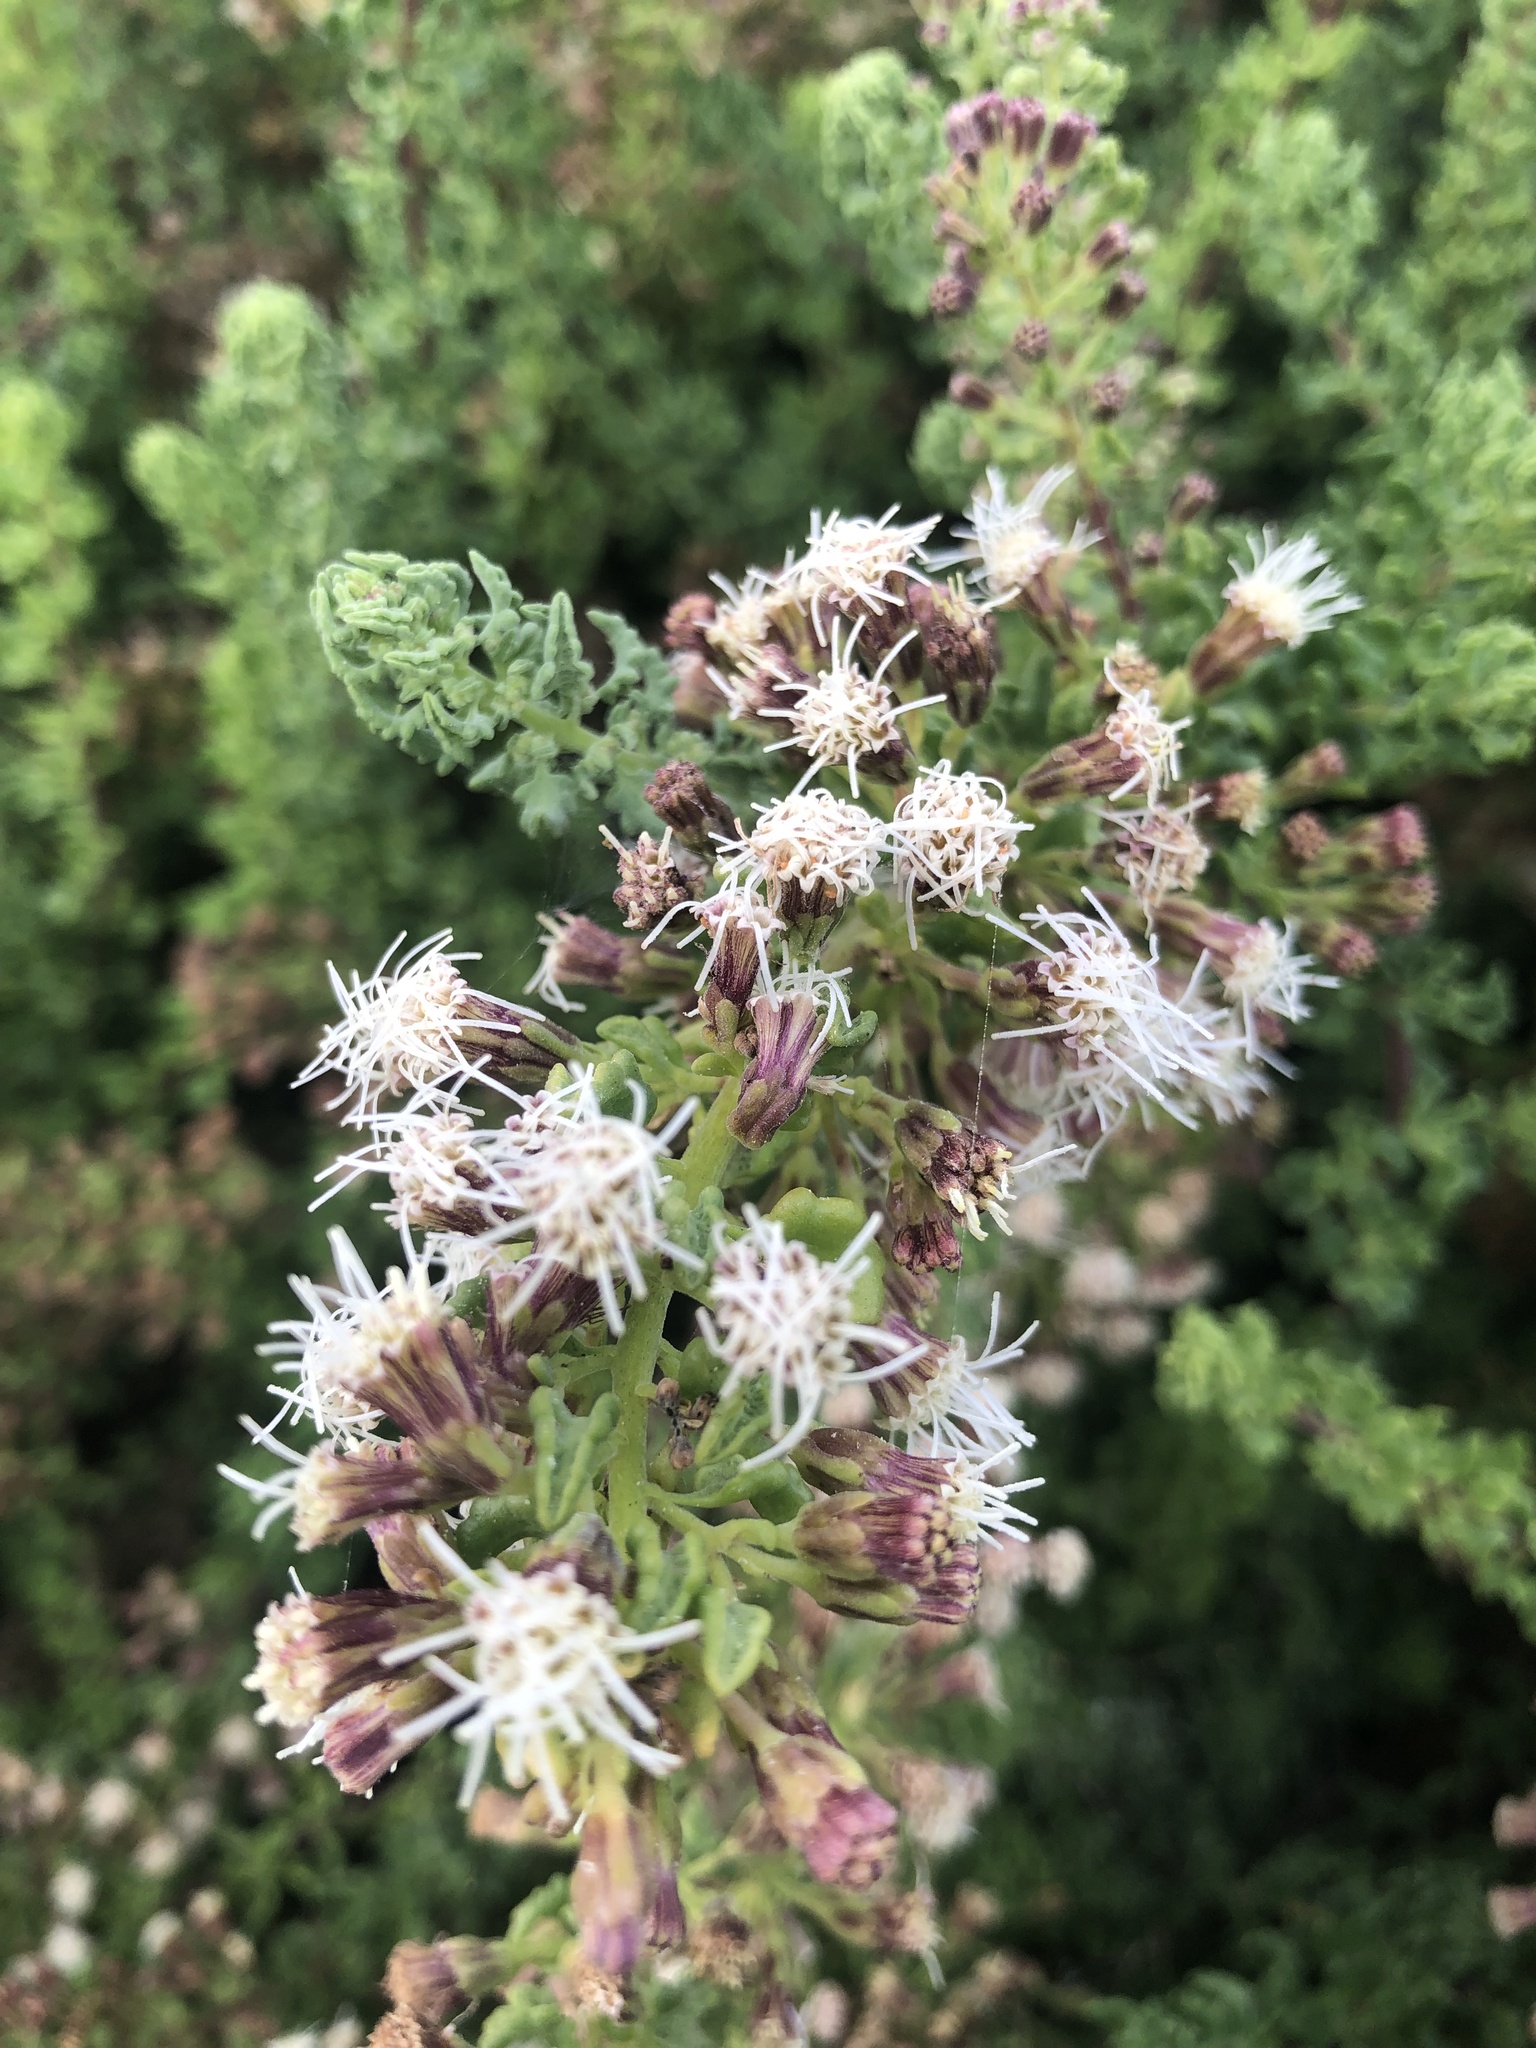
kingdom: Plantae
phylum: Tracheophyta
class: Magnoliopsida
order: Asterales
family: Asteraceae
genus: Ophryosporus
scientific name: Ophryosporus triangularis
